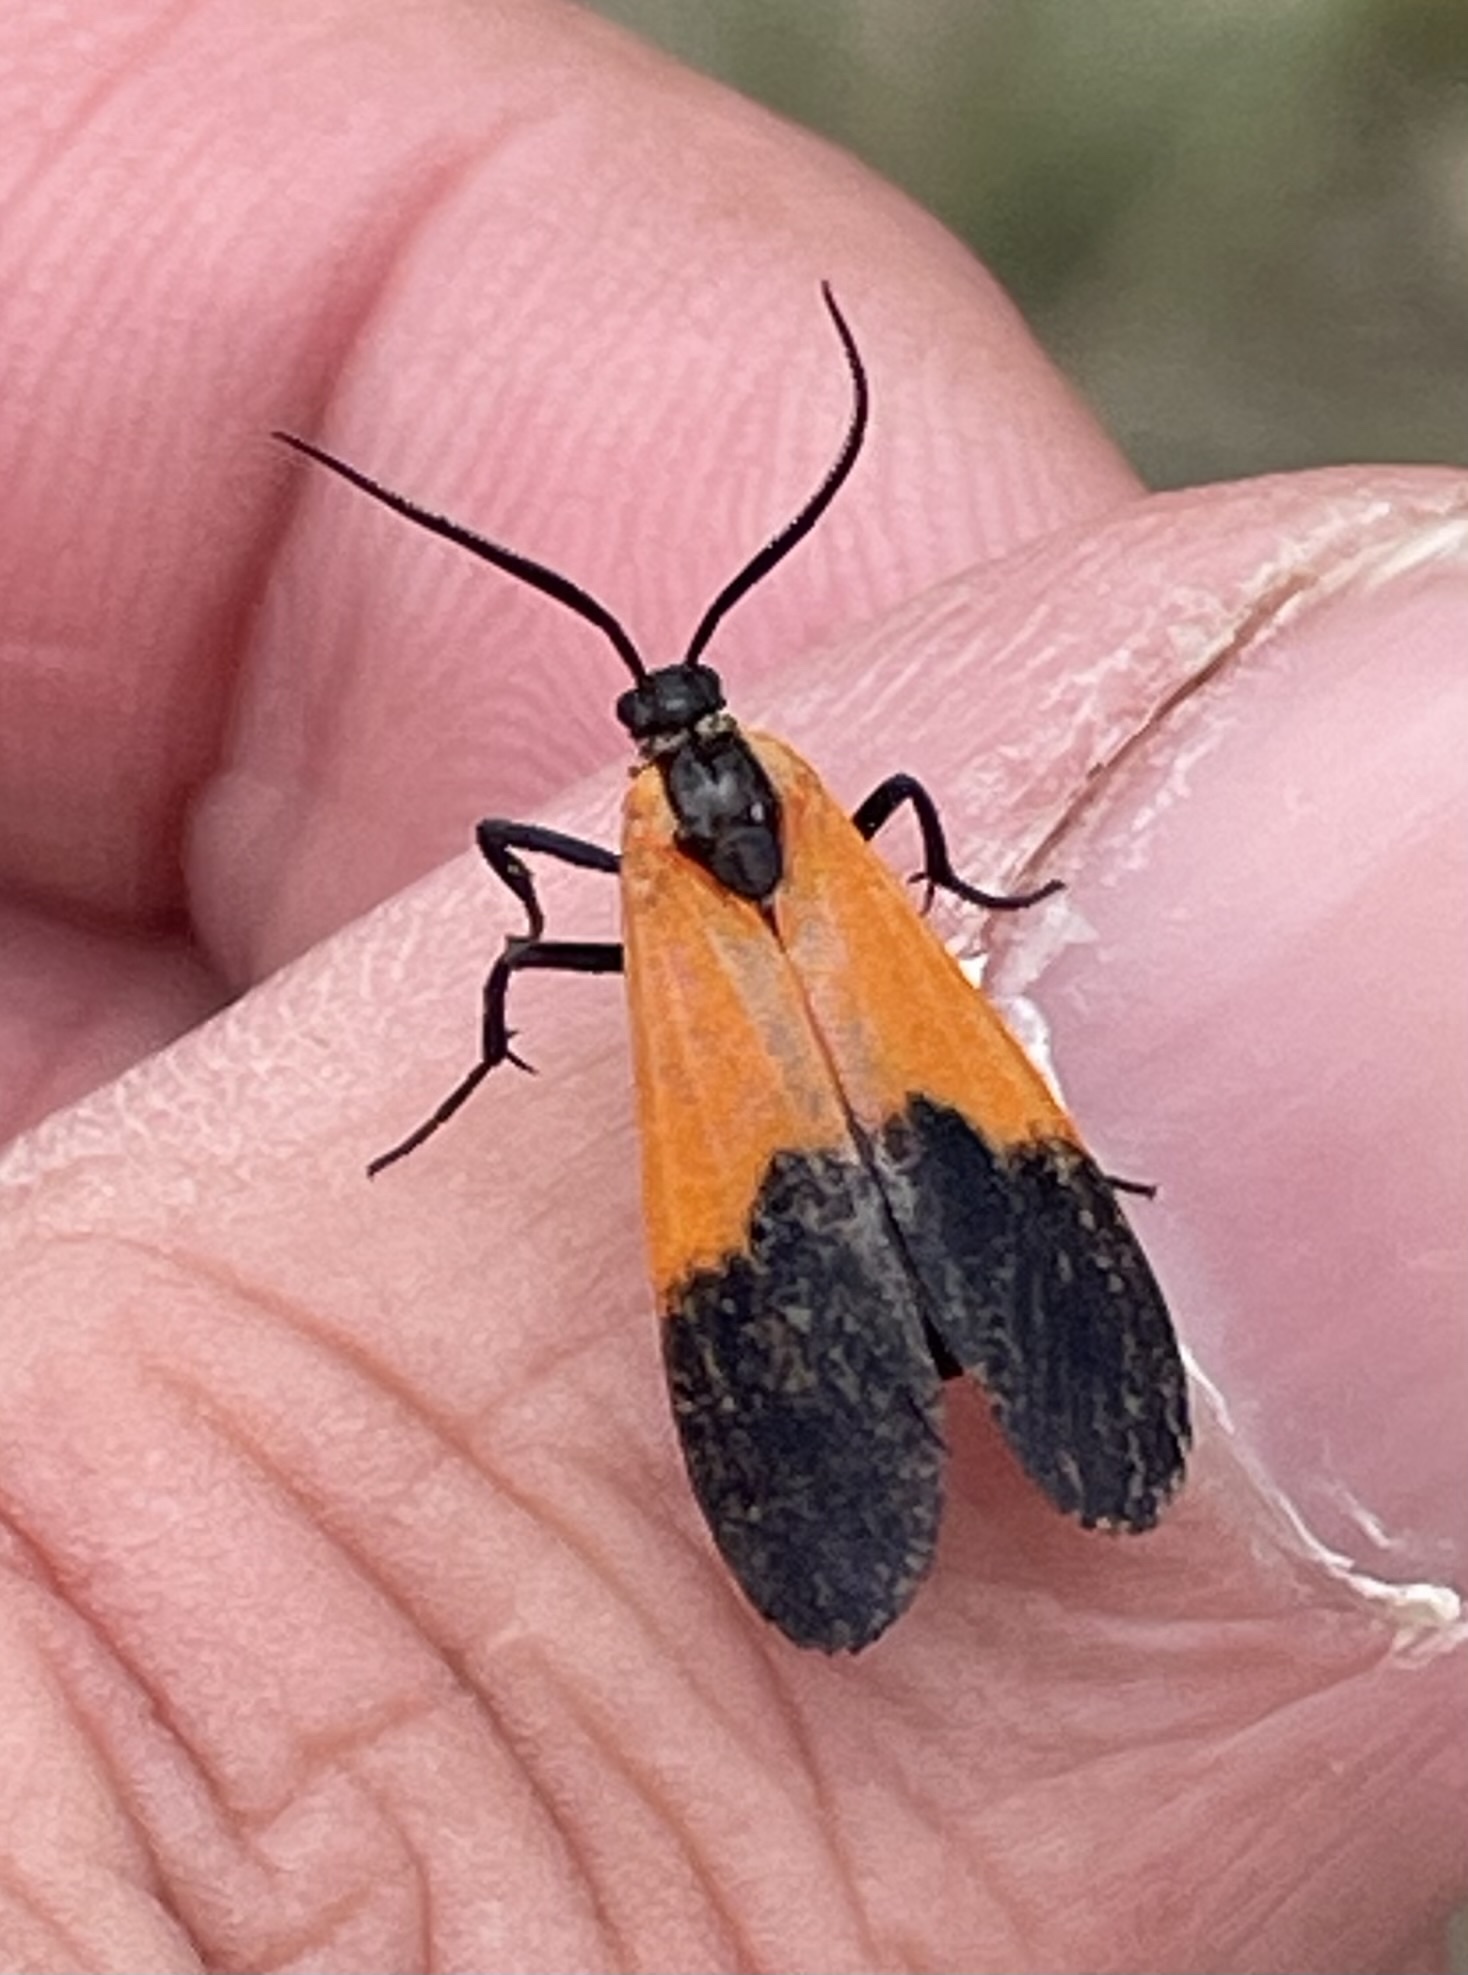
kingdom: Animalia
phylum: Arthropoda
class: Insecta
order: Lepidoptera
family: Erebidae
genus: Lycomorpha
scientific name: Lycomorpha pholus
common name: Black-and-yellow lichen moth
